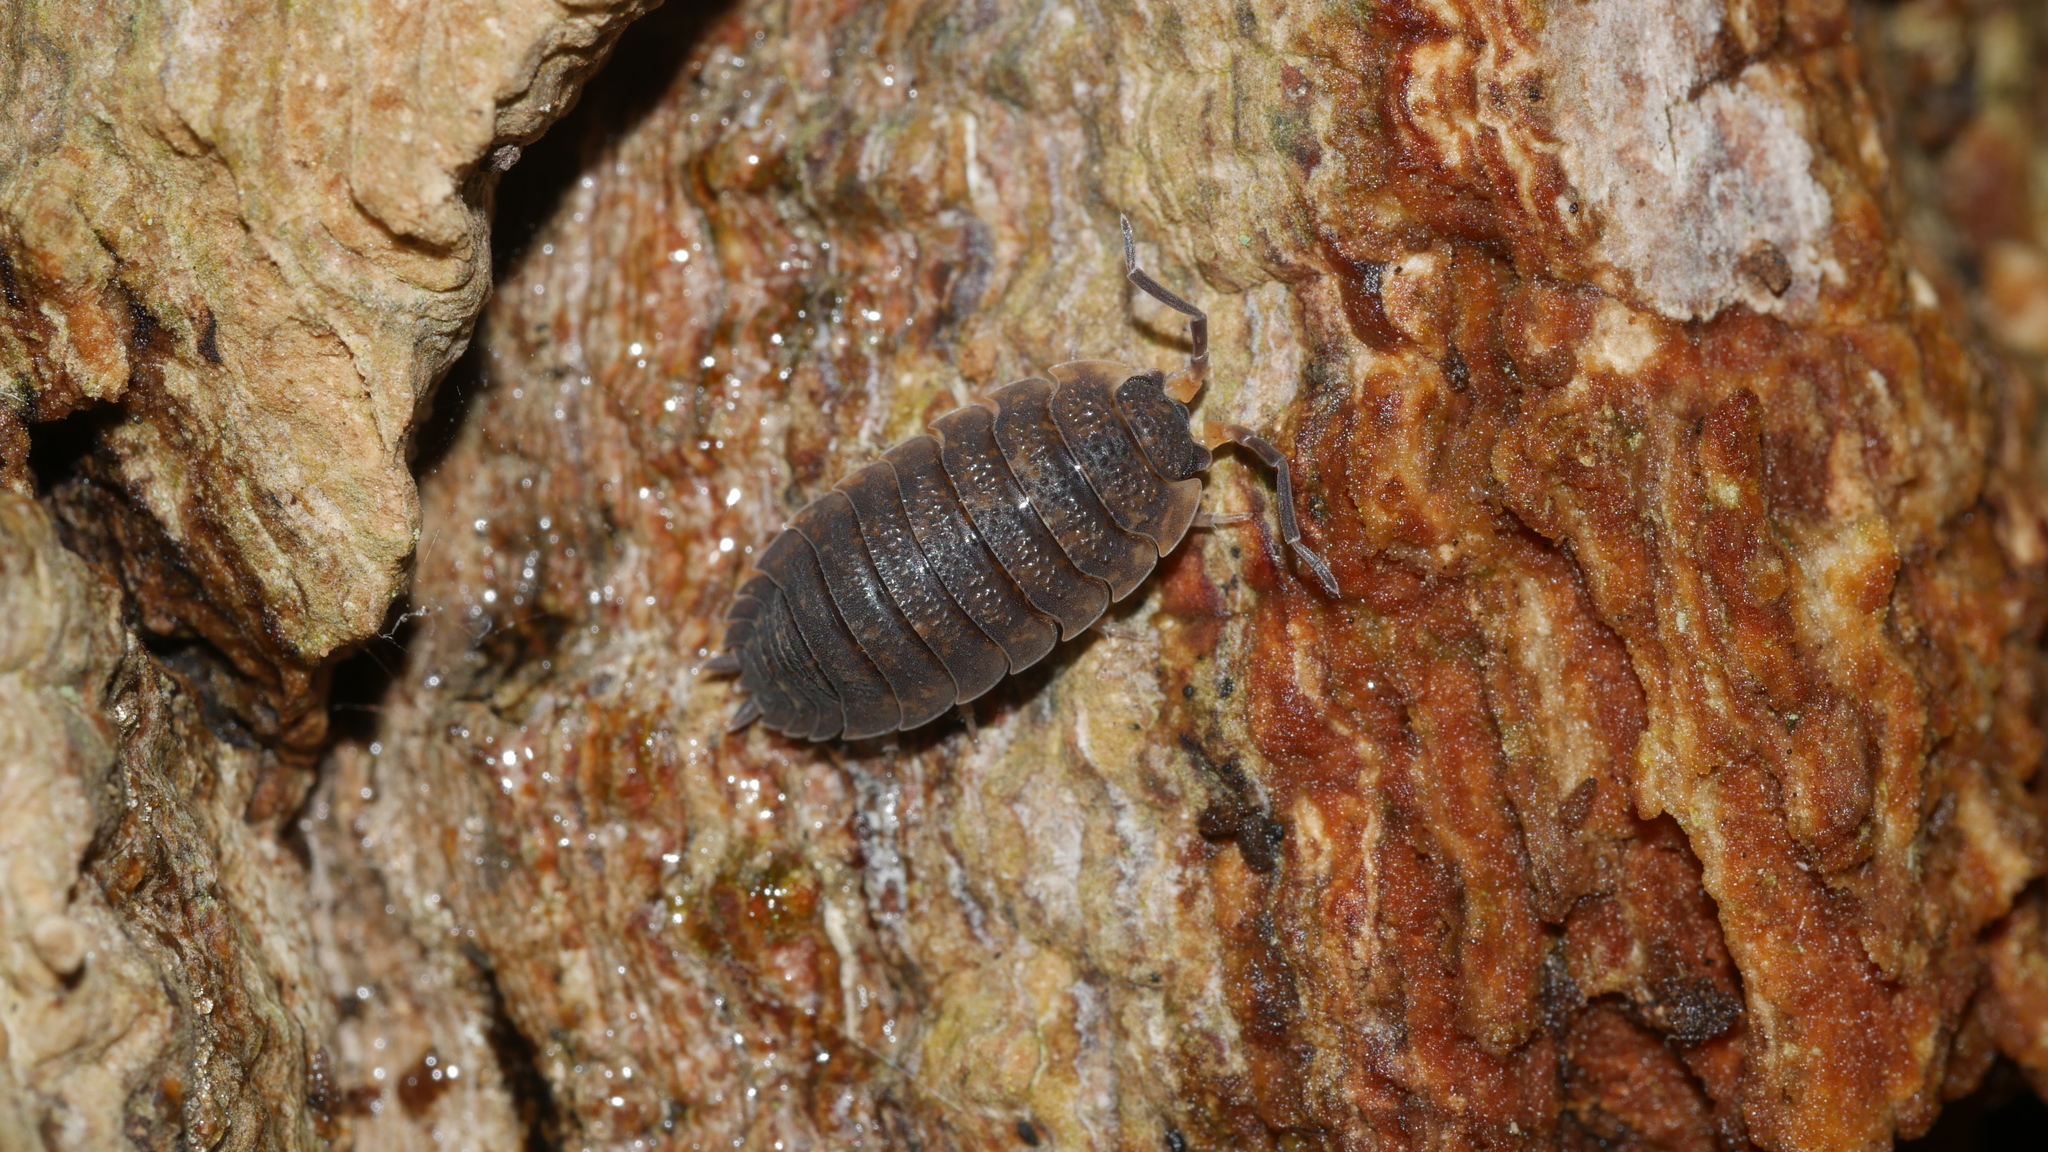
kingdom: Animalia
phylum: Arthropoda
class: Malacostraca
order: Isopoda
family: Porcellionidae
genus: Porcellio
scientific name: Porcellio scaber
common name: Common rough woodlouse
